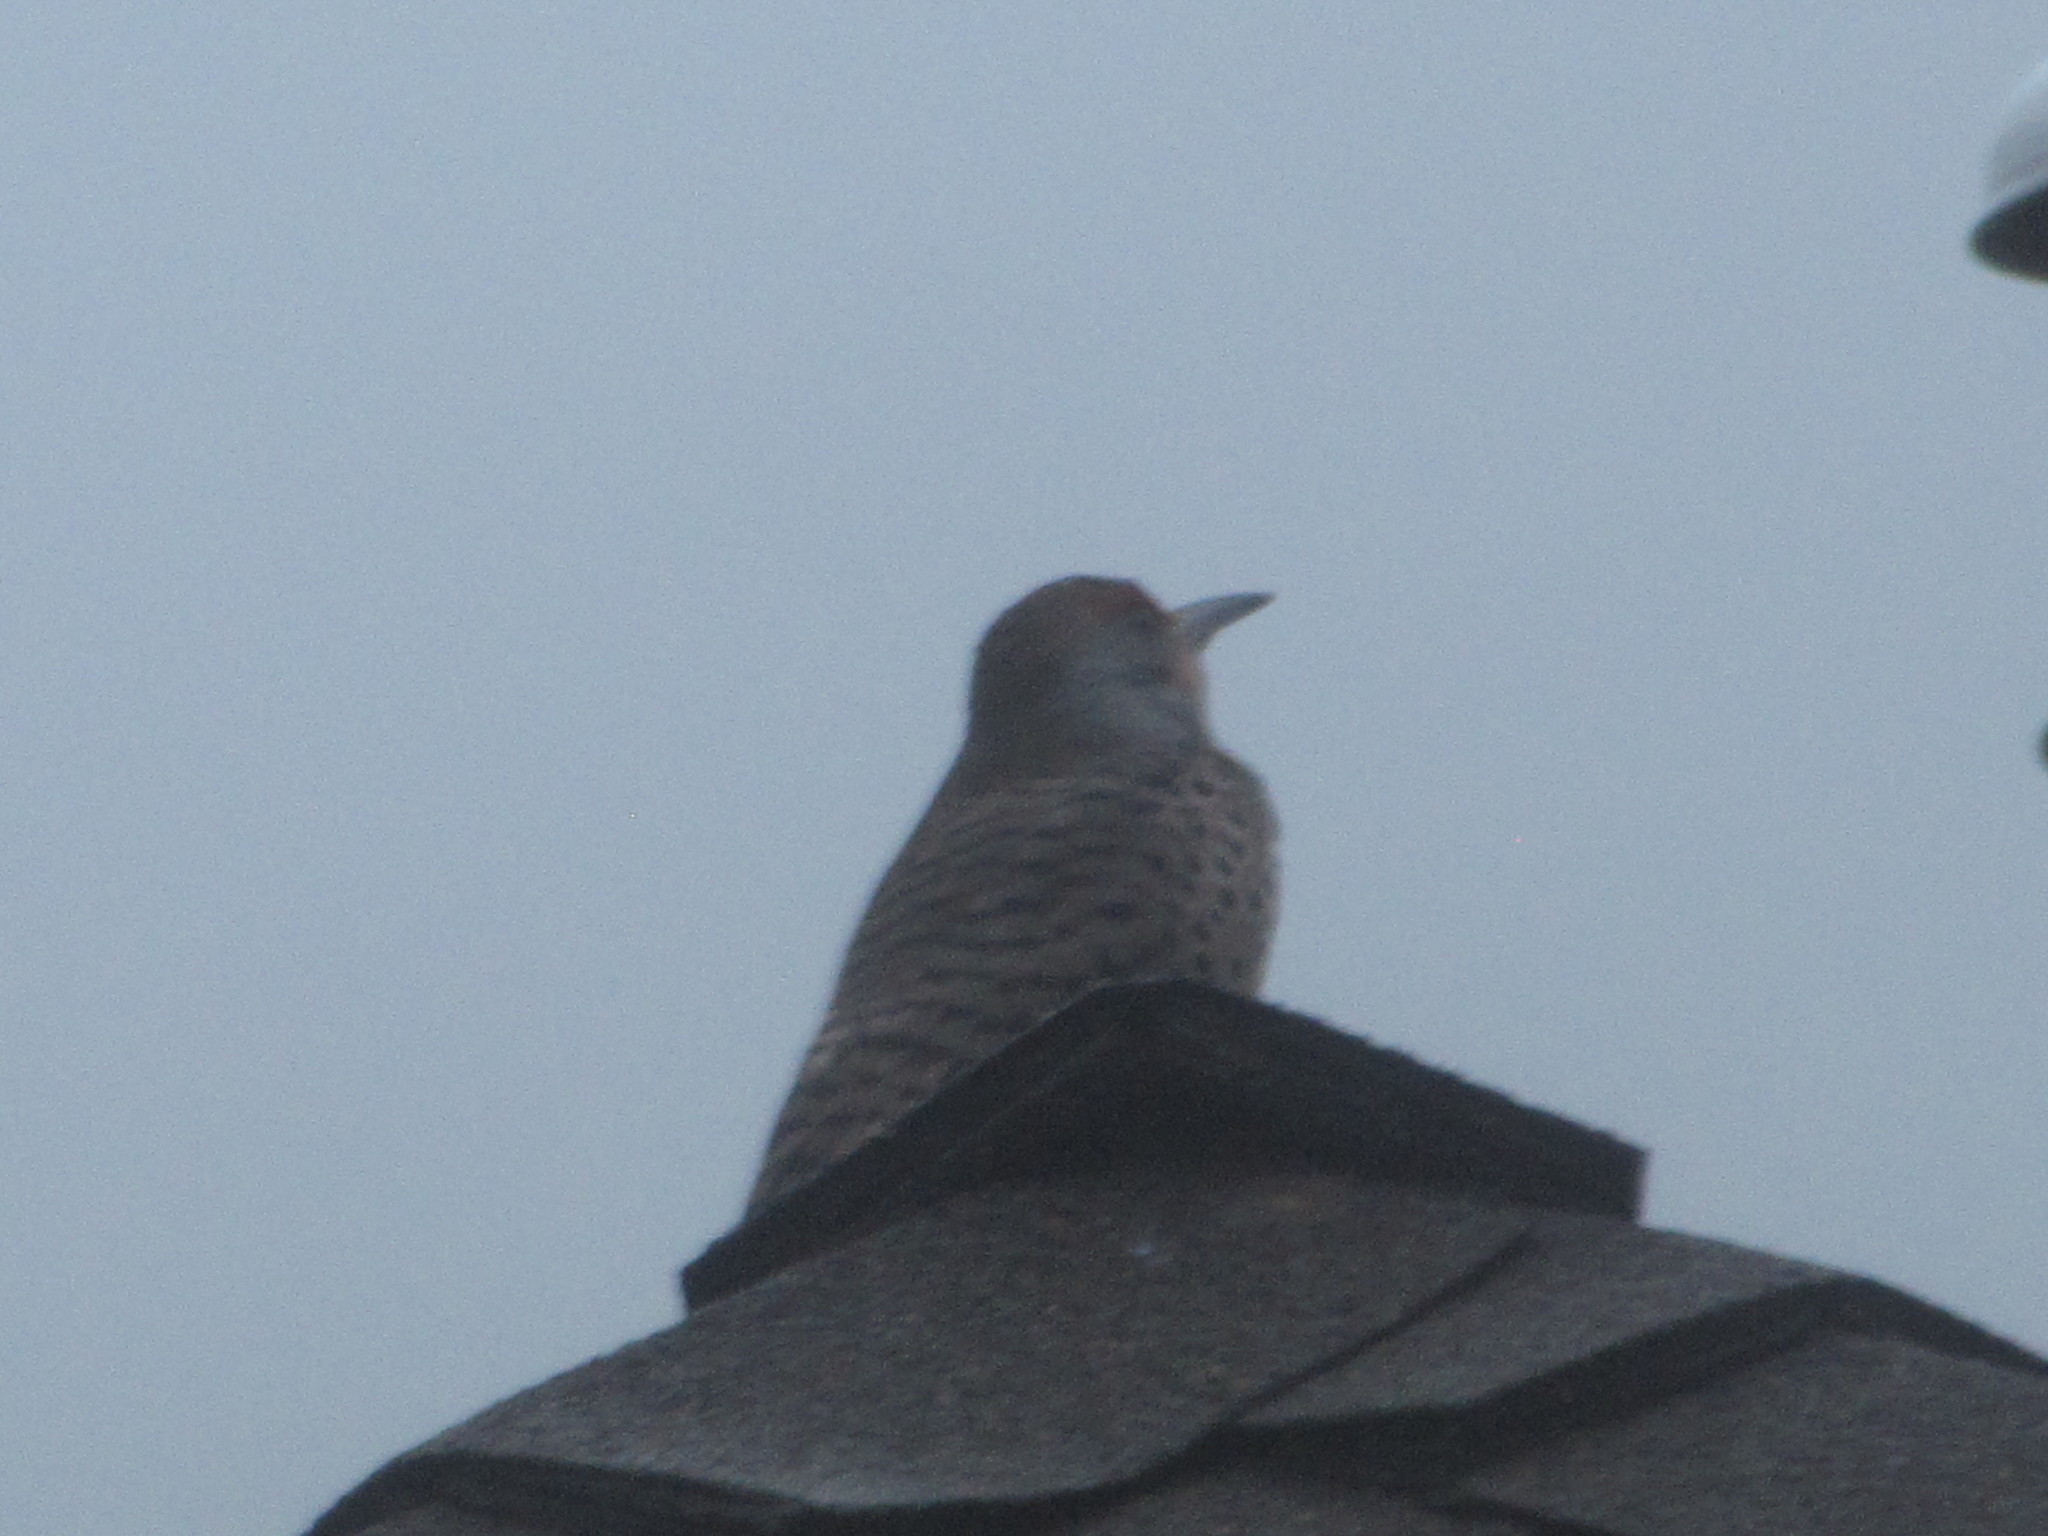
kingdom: Animalia
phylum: Chordata
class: Aves
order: Piciformes
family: Picidae
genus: Colaptes
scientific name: Colaptes auratus
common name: Northern flicker
